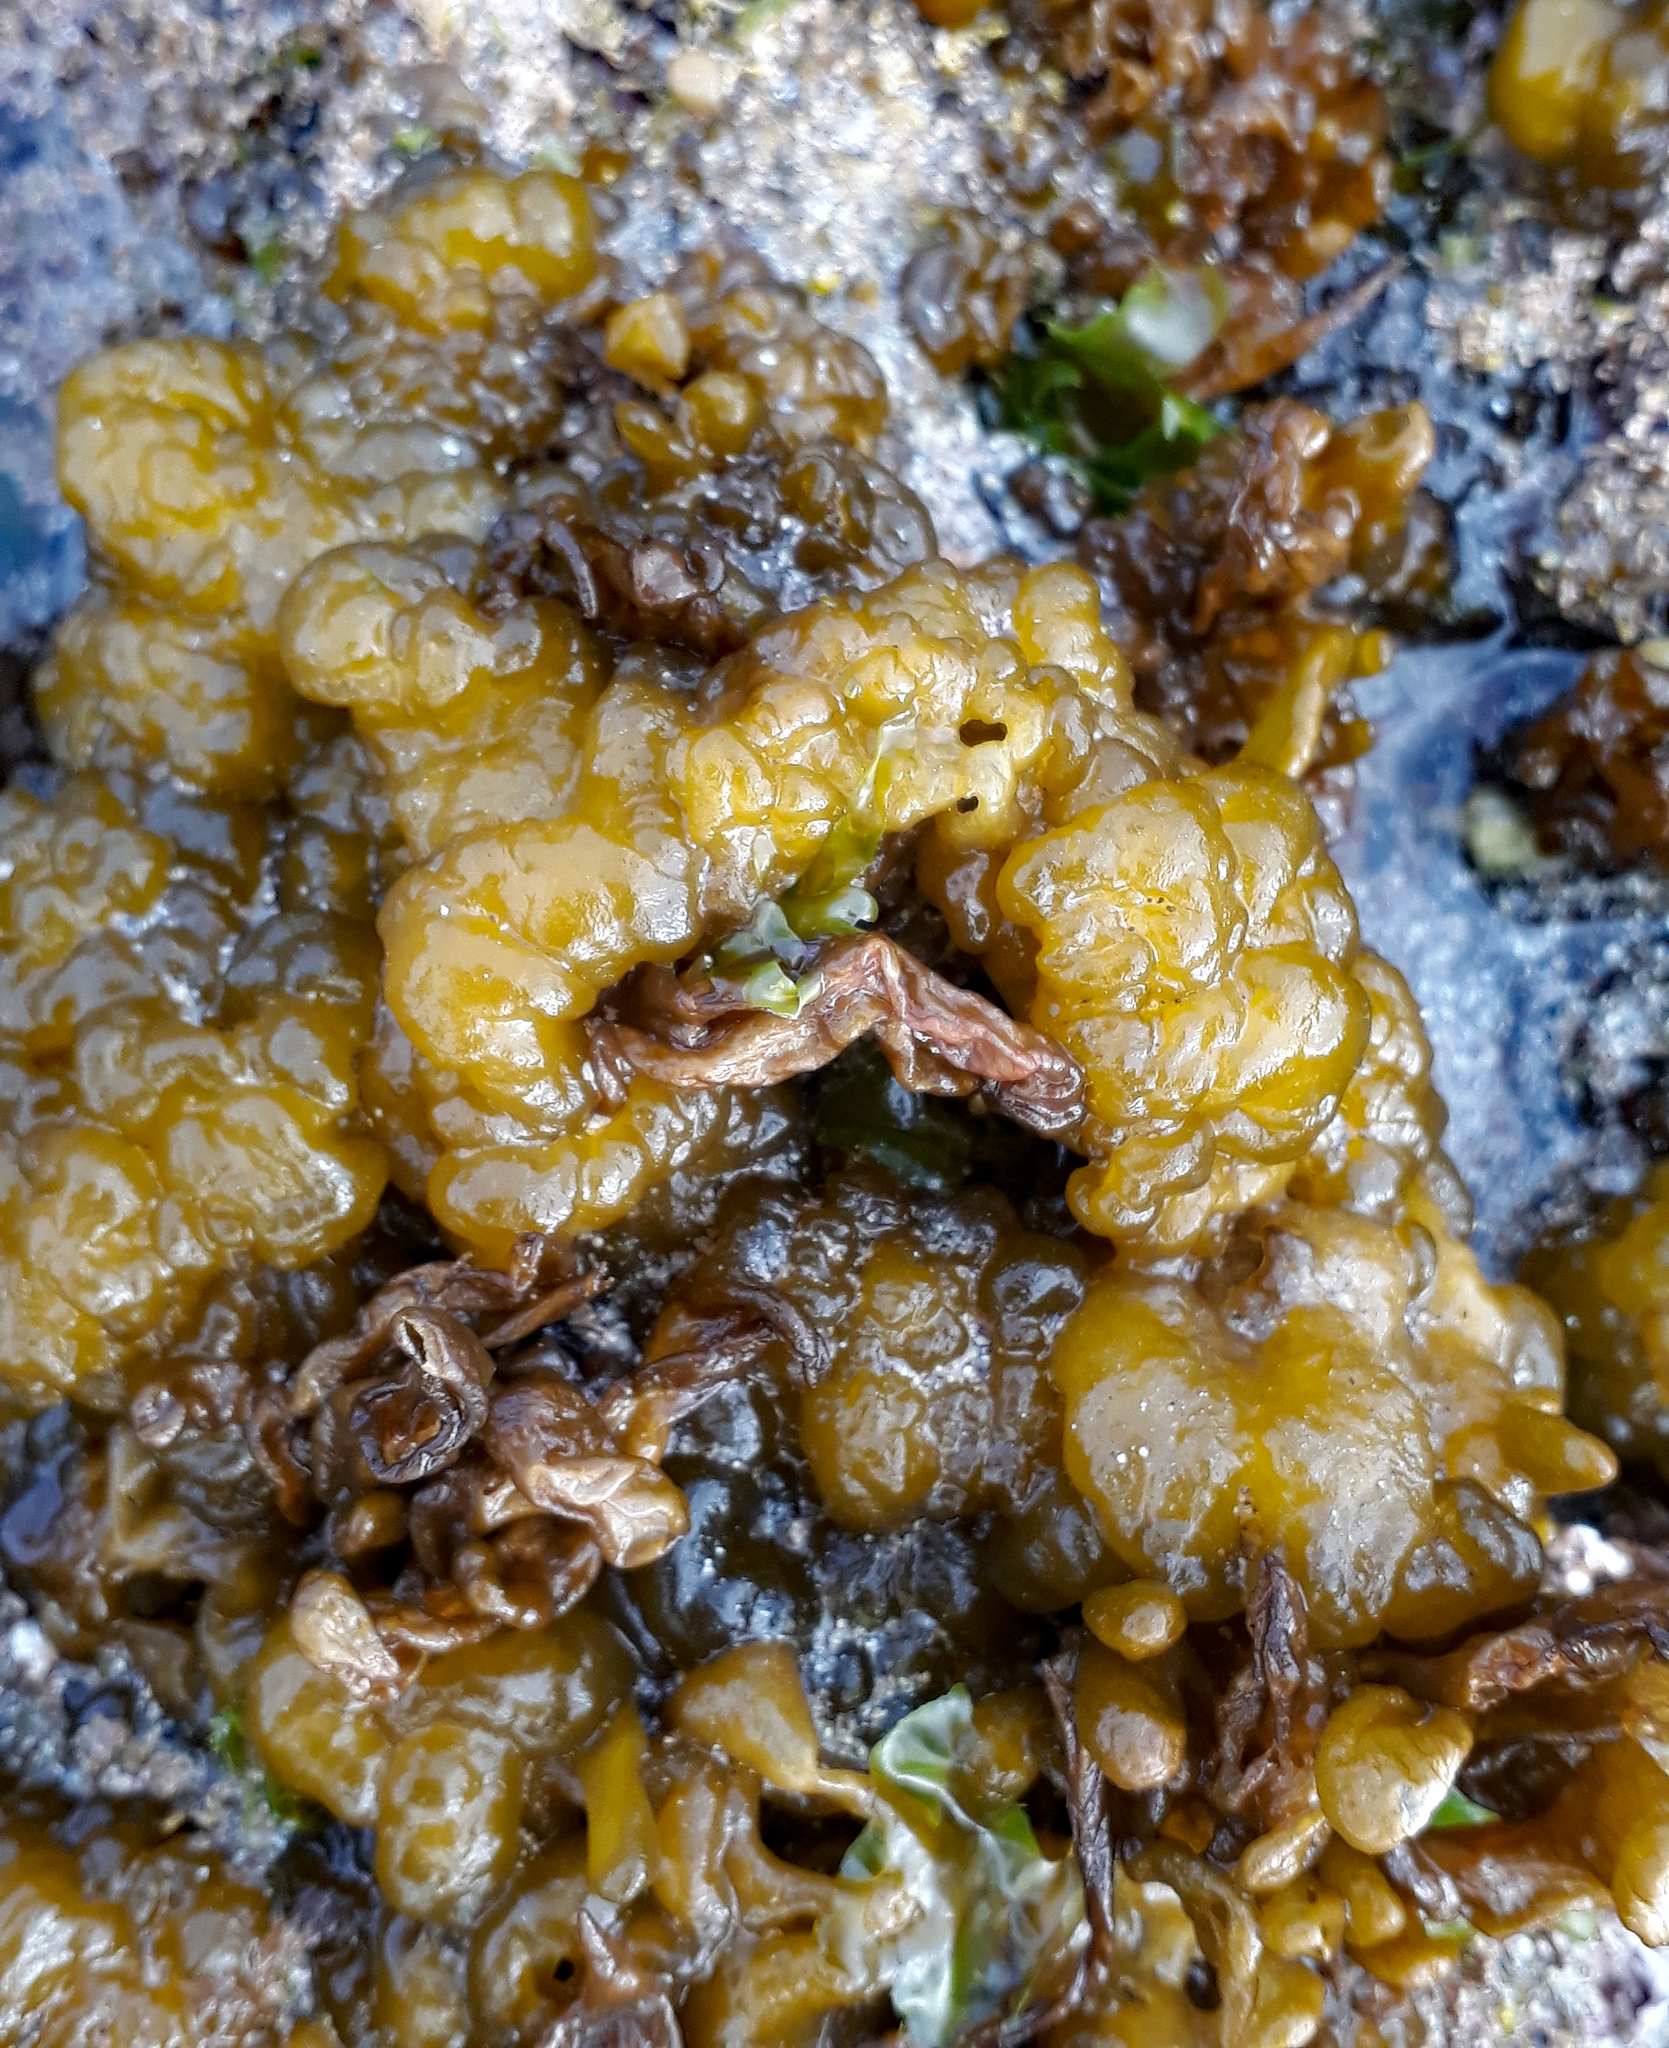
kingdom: Chromista
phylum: Ochrophyta
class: Phaeophyceae
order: Ectocarpales
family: Chordariaceae
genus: Leathesia
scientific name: Leathesia marina
